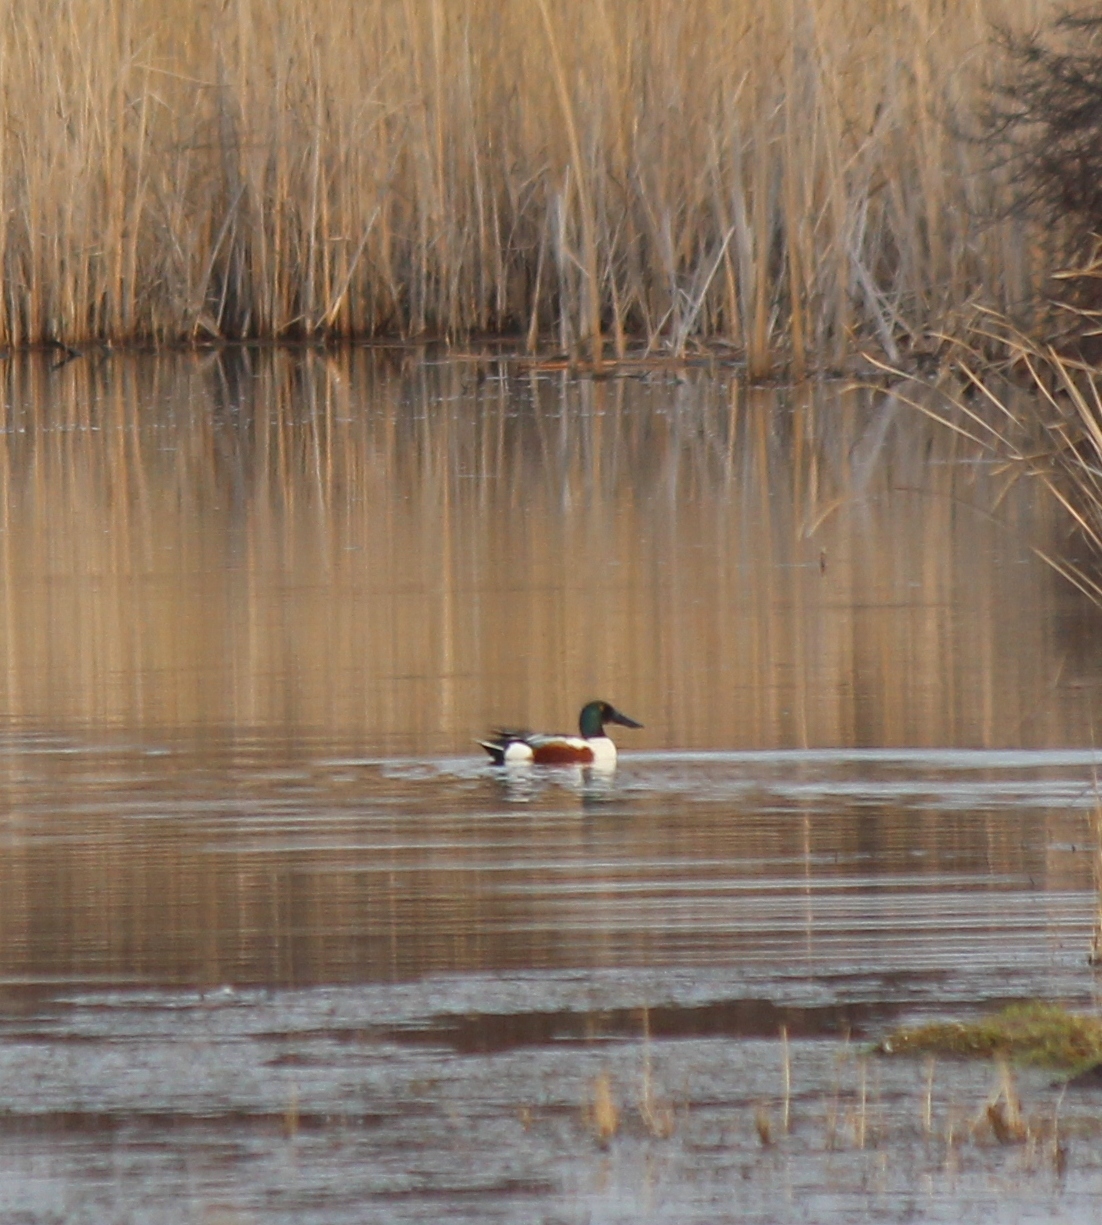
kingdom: Animalia
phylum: Chordata
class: Aves
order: Anseriformes
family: Anatidae
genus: Spatula
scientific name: Spatula clypeata
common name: Northern shoveler
